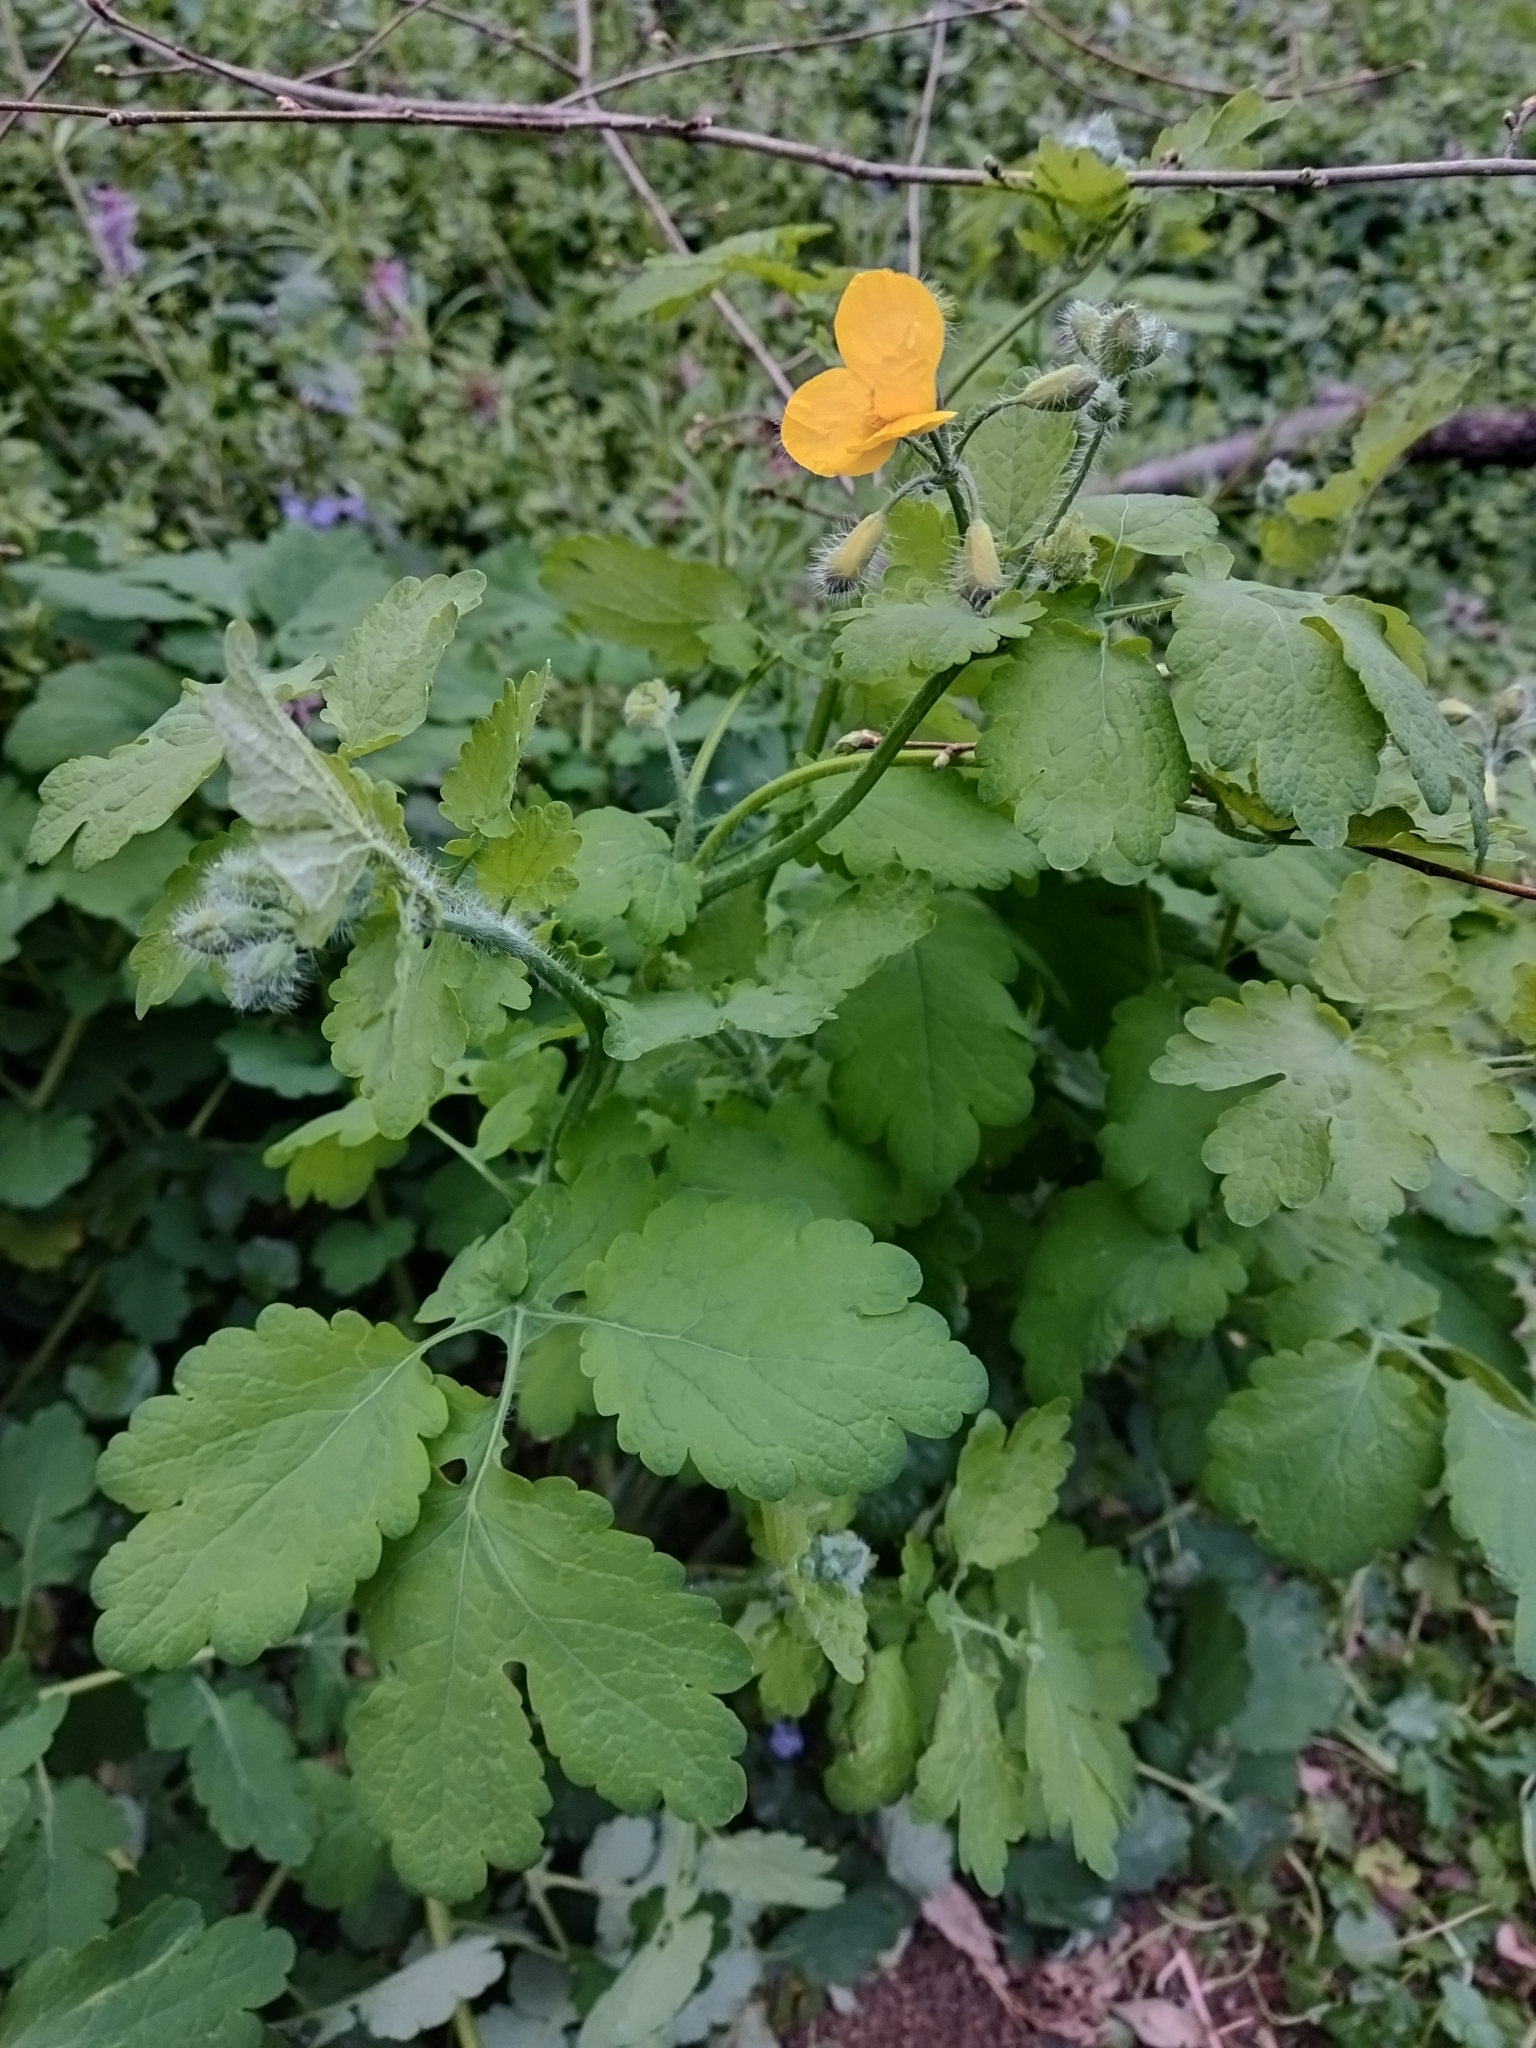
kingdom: Plantae
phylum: Tracheophyta
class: Magnoliopsida
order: Ranunculales
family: Papaveraceae
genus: Chelidonium
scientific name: Chelidonium majus
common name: Greater celandine
